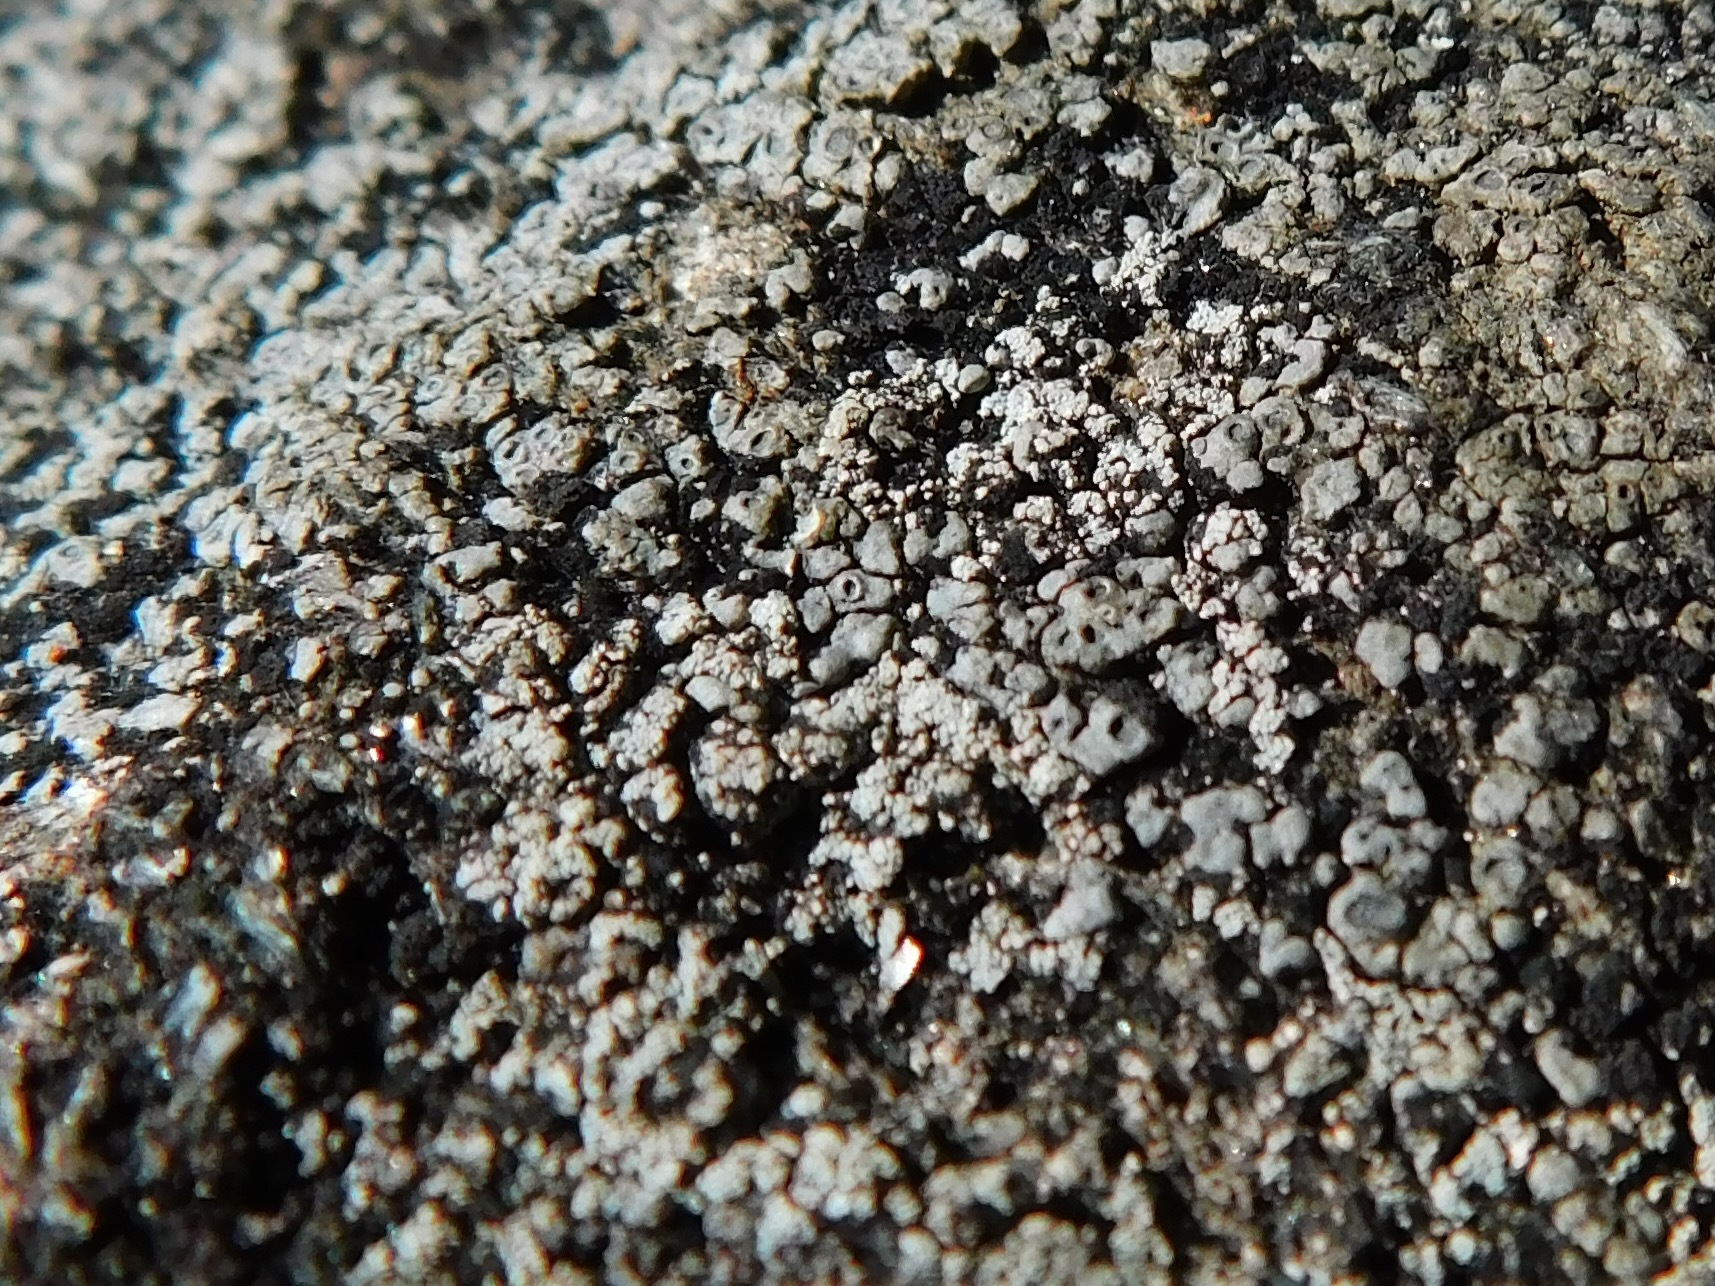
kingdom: Fungi
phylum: Ascomycota
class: Lecanoromycetes
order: Pertusariales
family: Megasporaceae
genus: Circinaria
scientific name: Circinaria caesiocinerea
